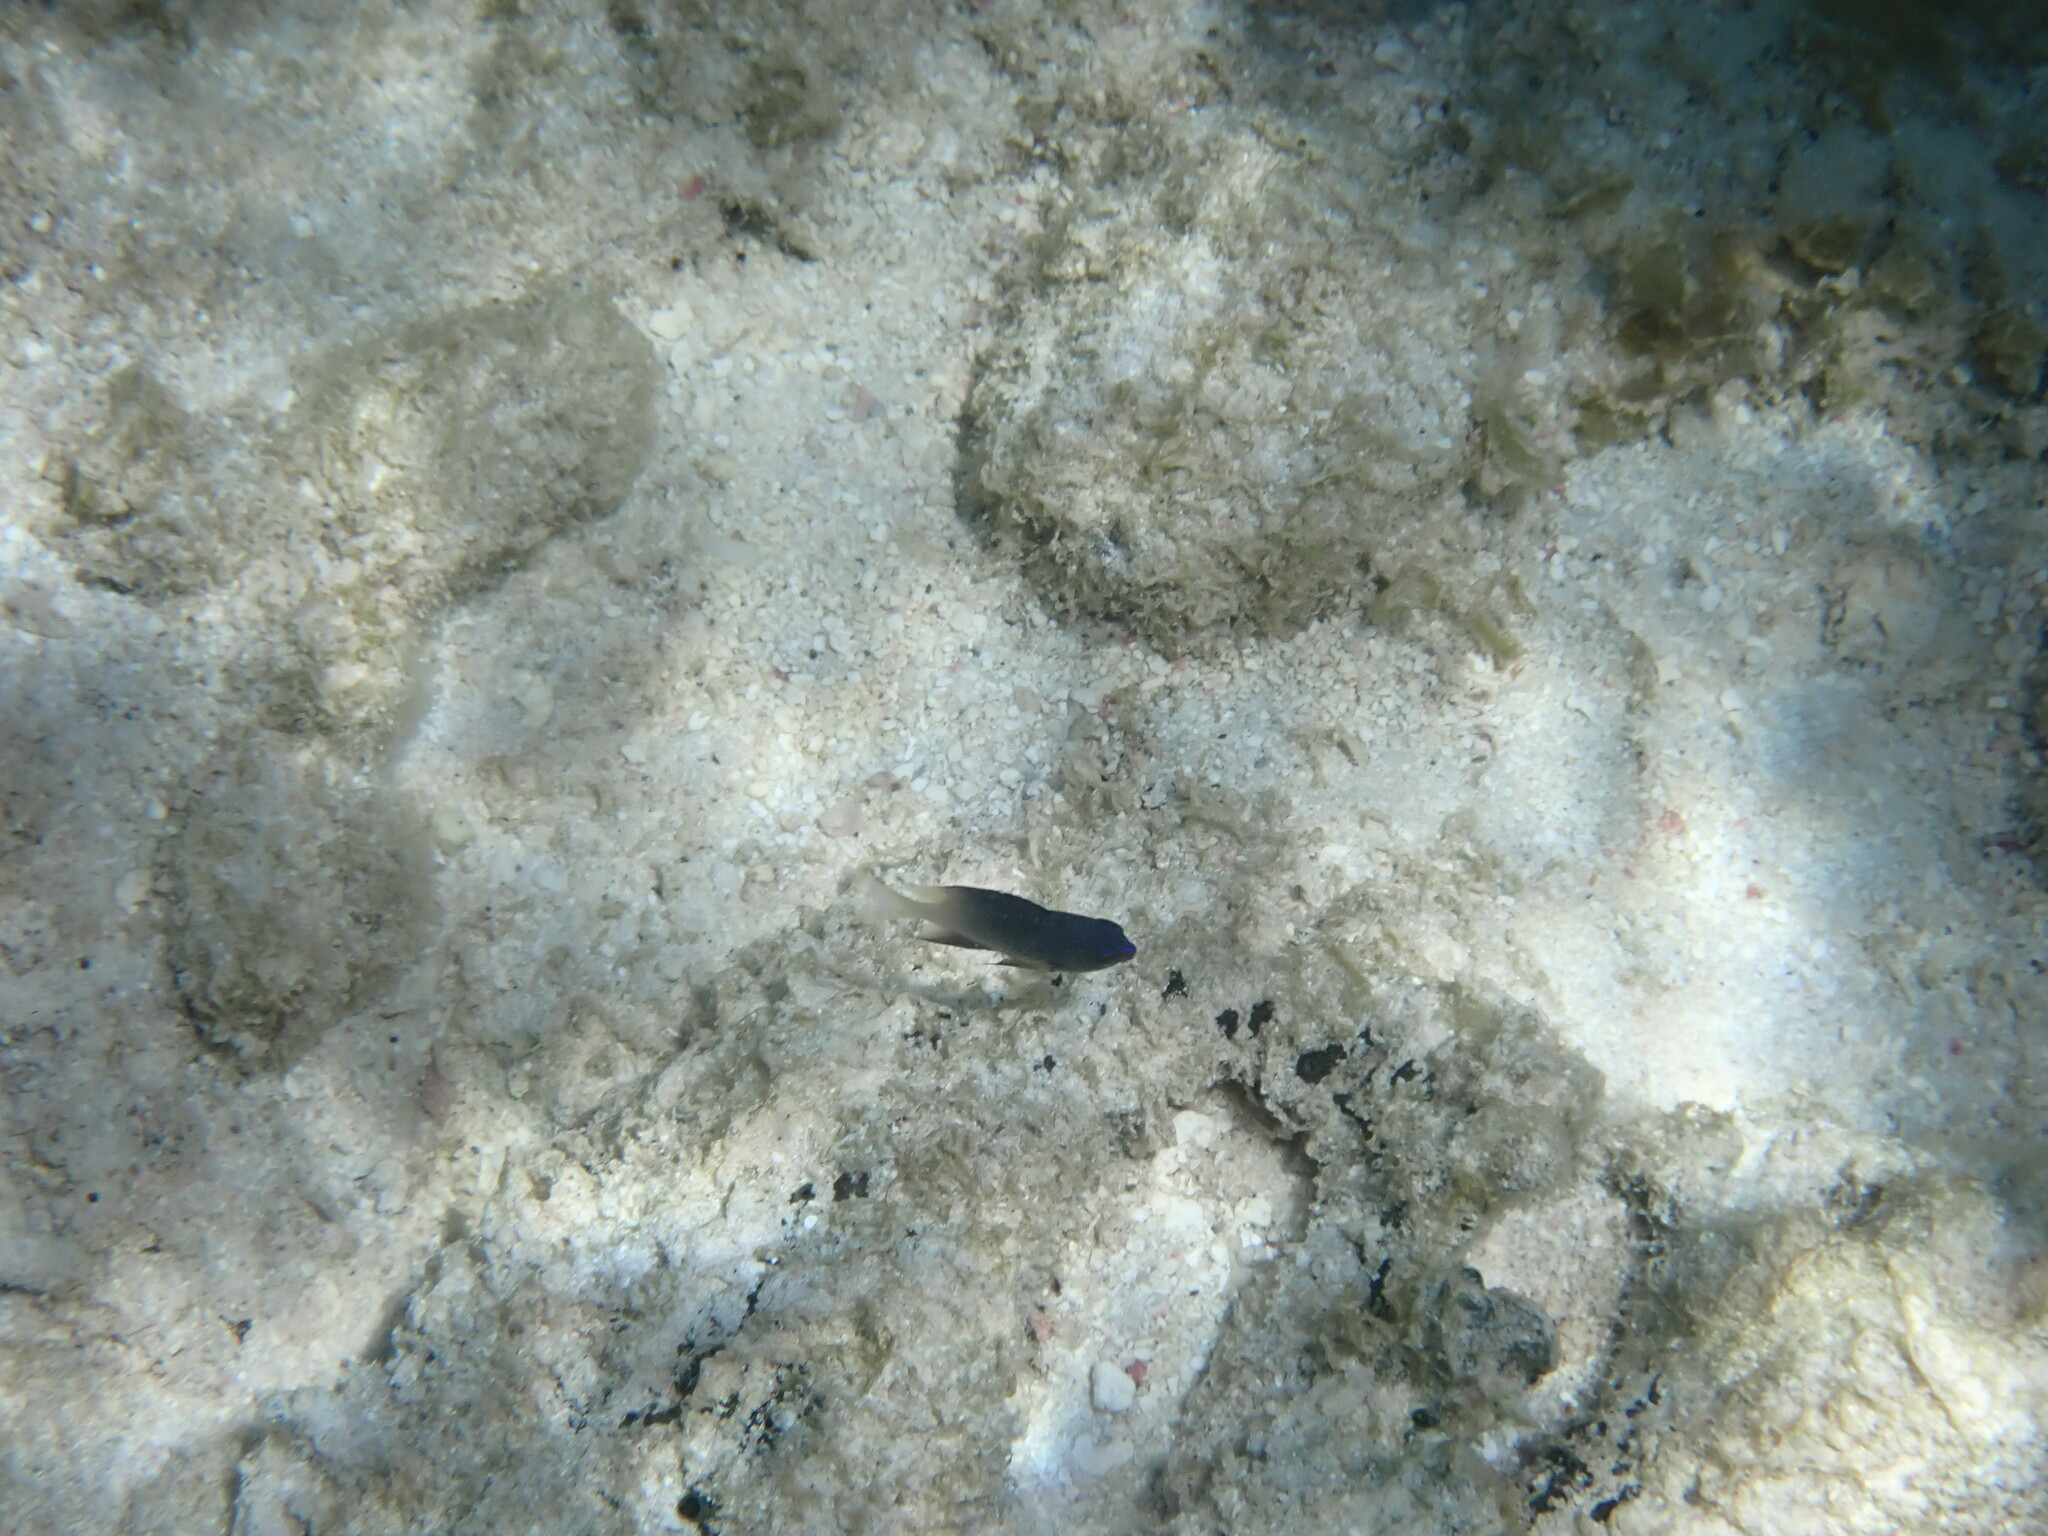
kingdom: Animalia
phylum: Chordata
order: Perciformes
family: Pomacentridae
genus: Stegastes
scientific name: Stegastes partitus
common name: Bicolor damselfish
